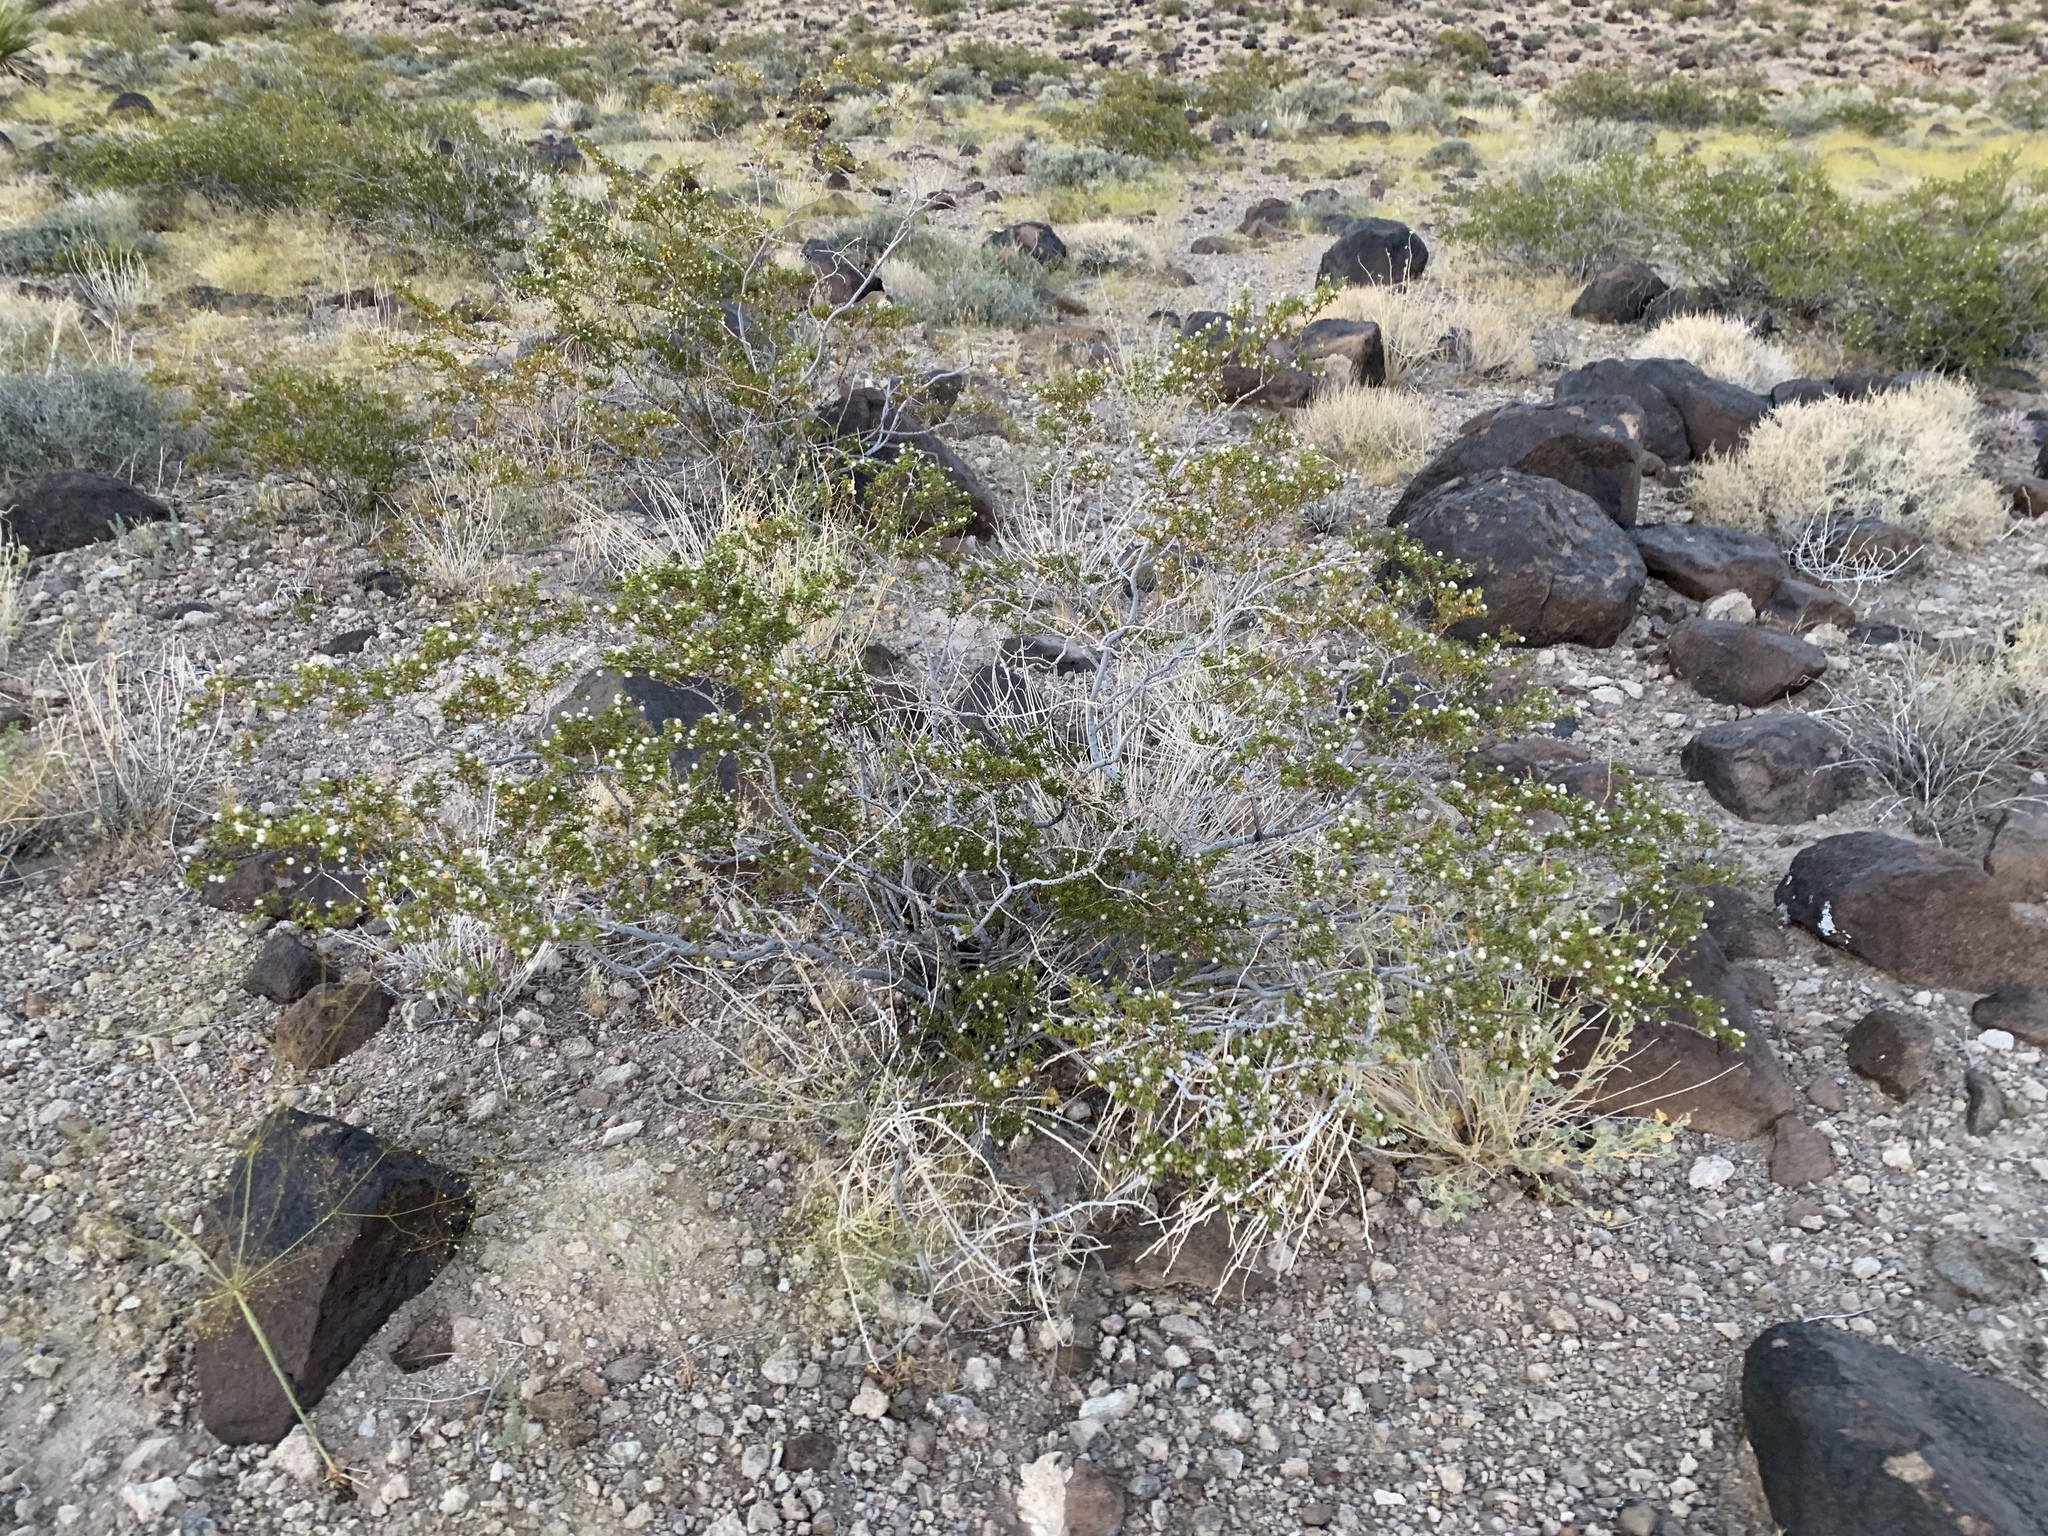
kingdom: Plantae
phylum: Tracheophyta
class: Magnoliopsida
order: Zygophyllales
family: Zygophyllaceae
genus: Larrea
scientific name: Larrea tridentata
